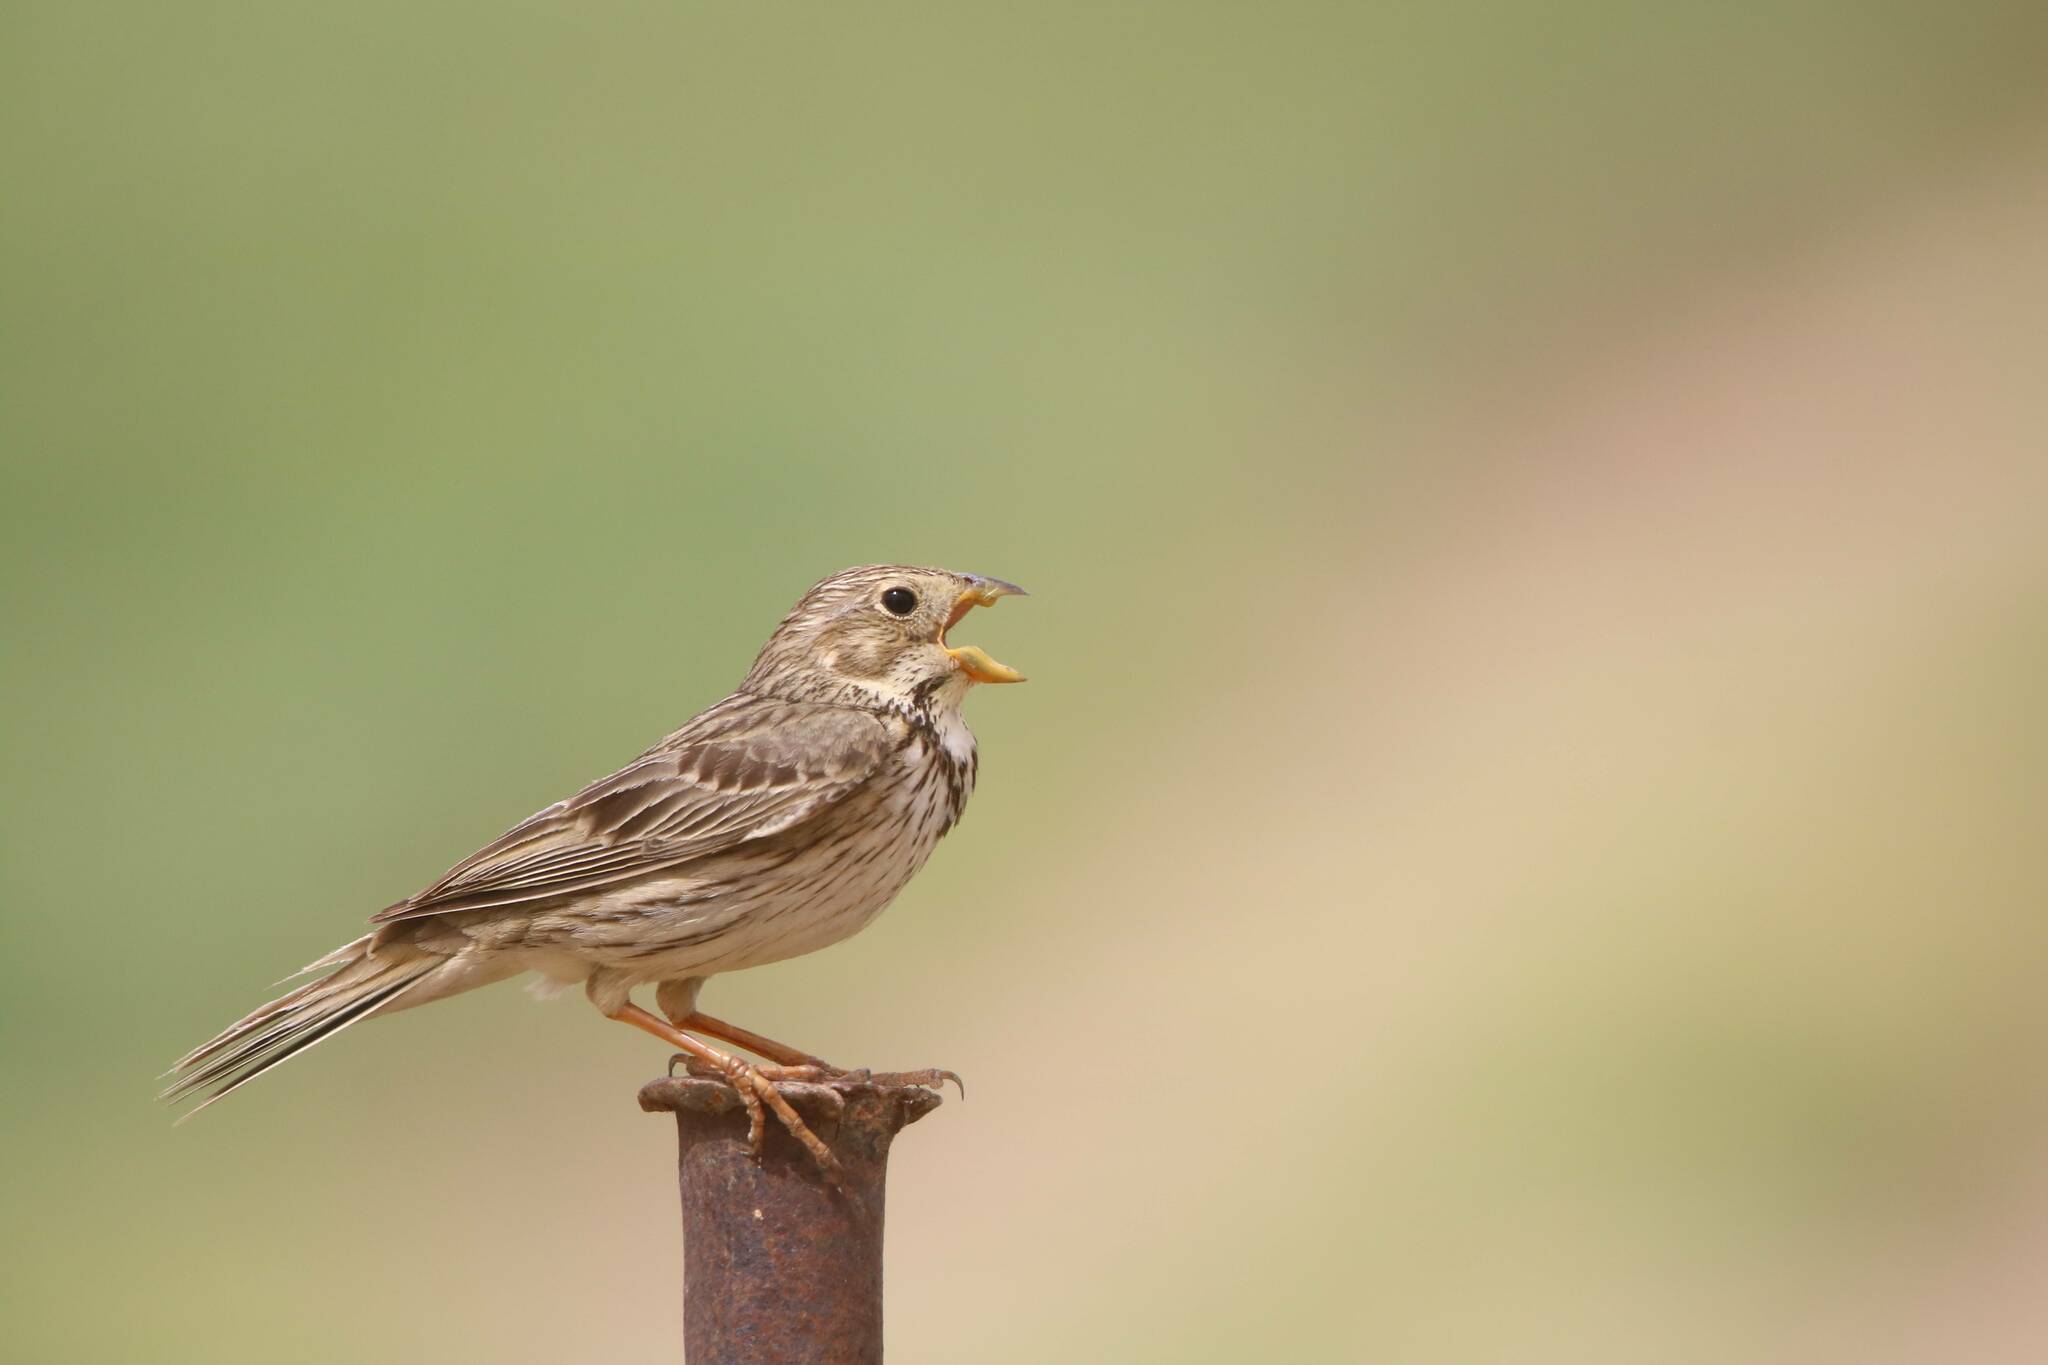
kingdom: Animalia
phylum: Chordata
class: Aves
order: Passeriformes
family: Emberizidae
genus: Emberiza
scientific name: Emberiza calandra
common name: Corn bunting
